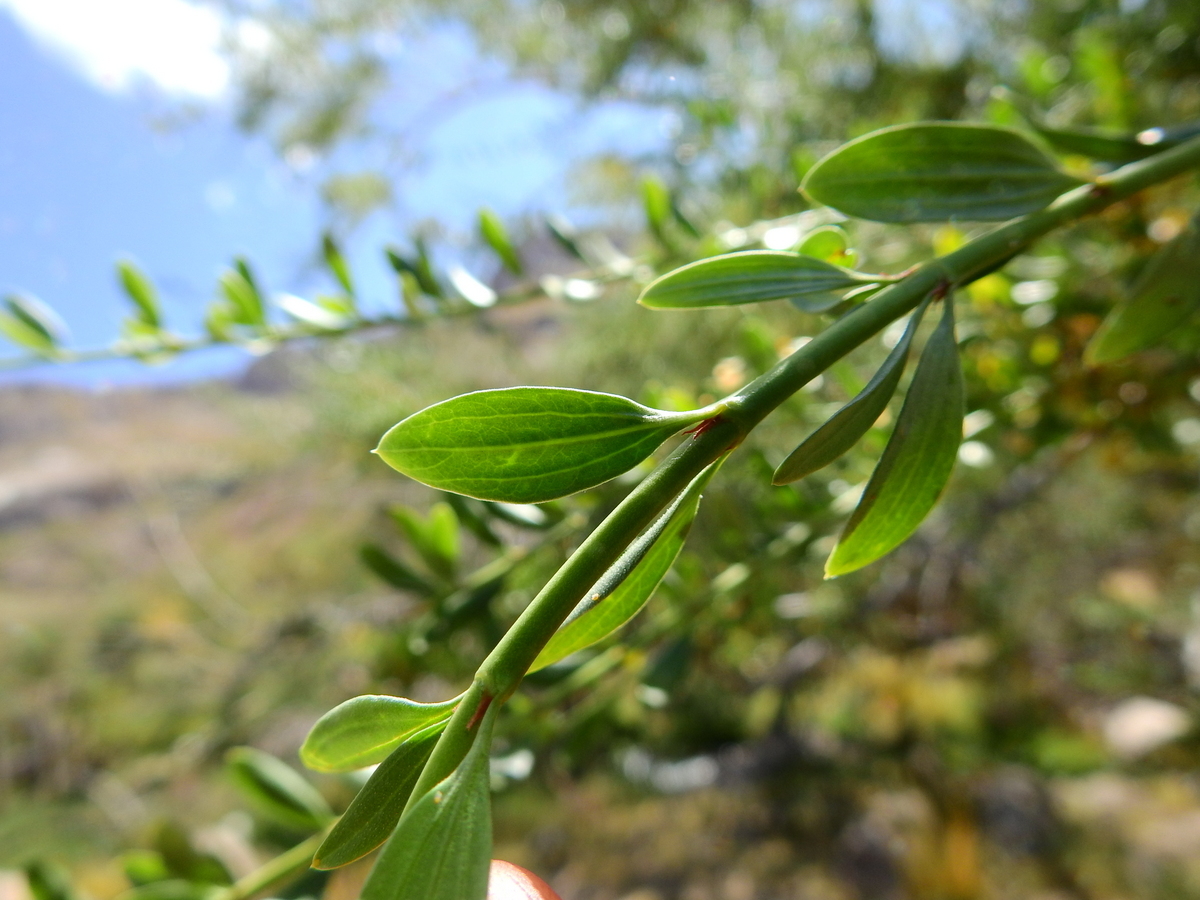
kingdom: Plantae
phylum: Tracheophyta
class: Magnoliopsida
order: Rosales
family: Rhamnaceae
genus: Ochetophila
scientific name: Ochetophila trinervis
